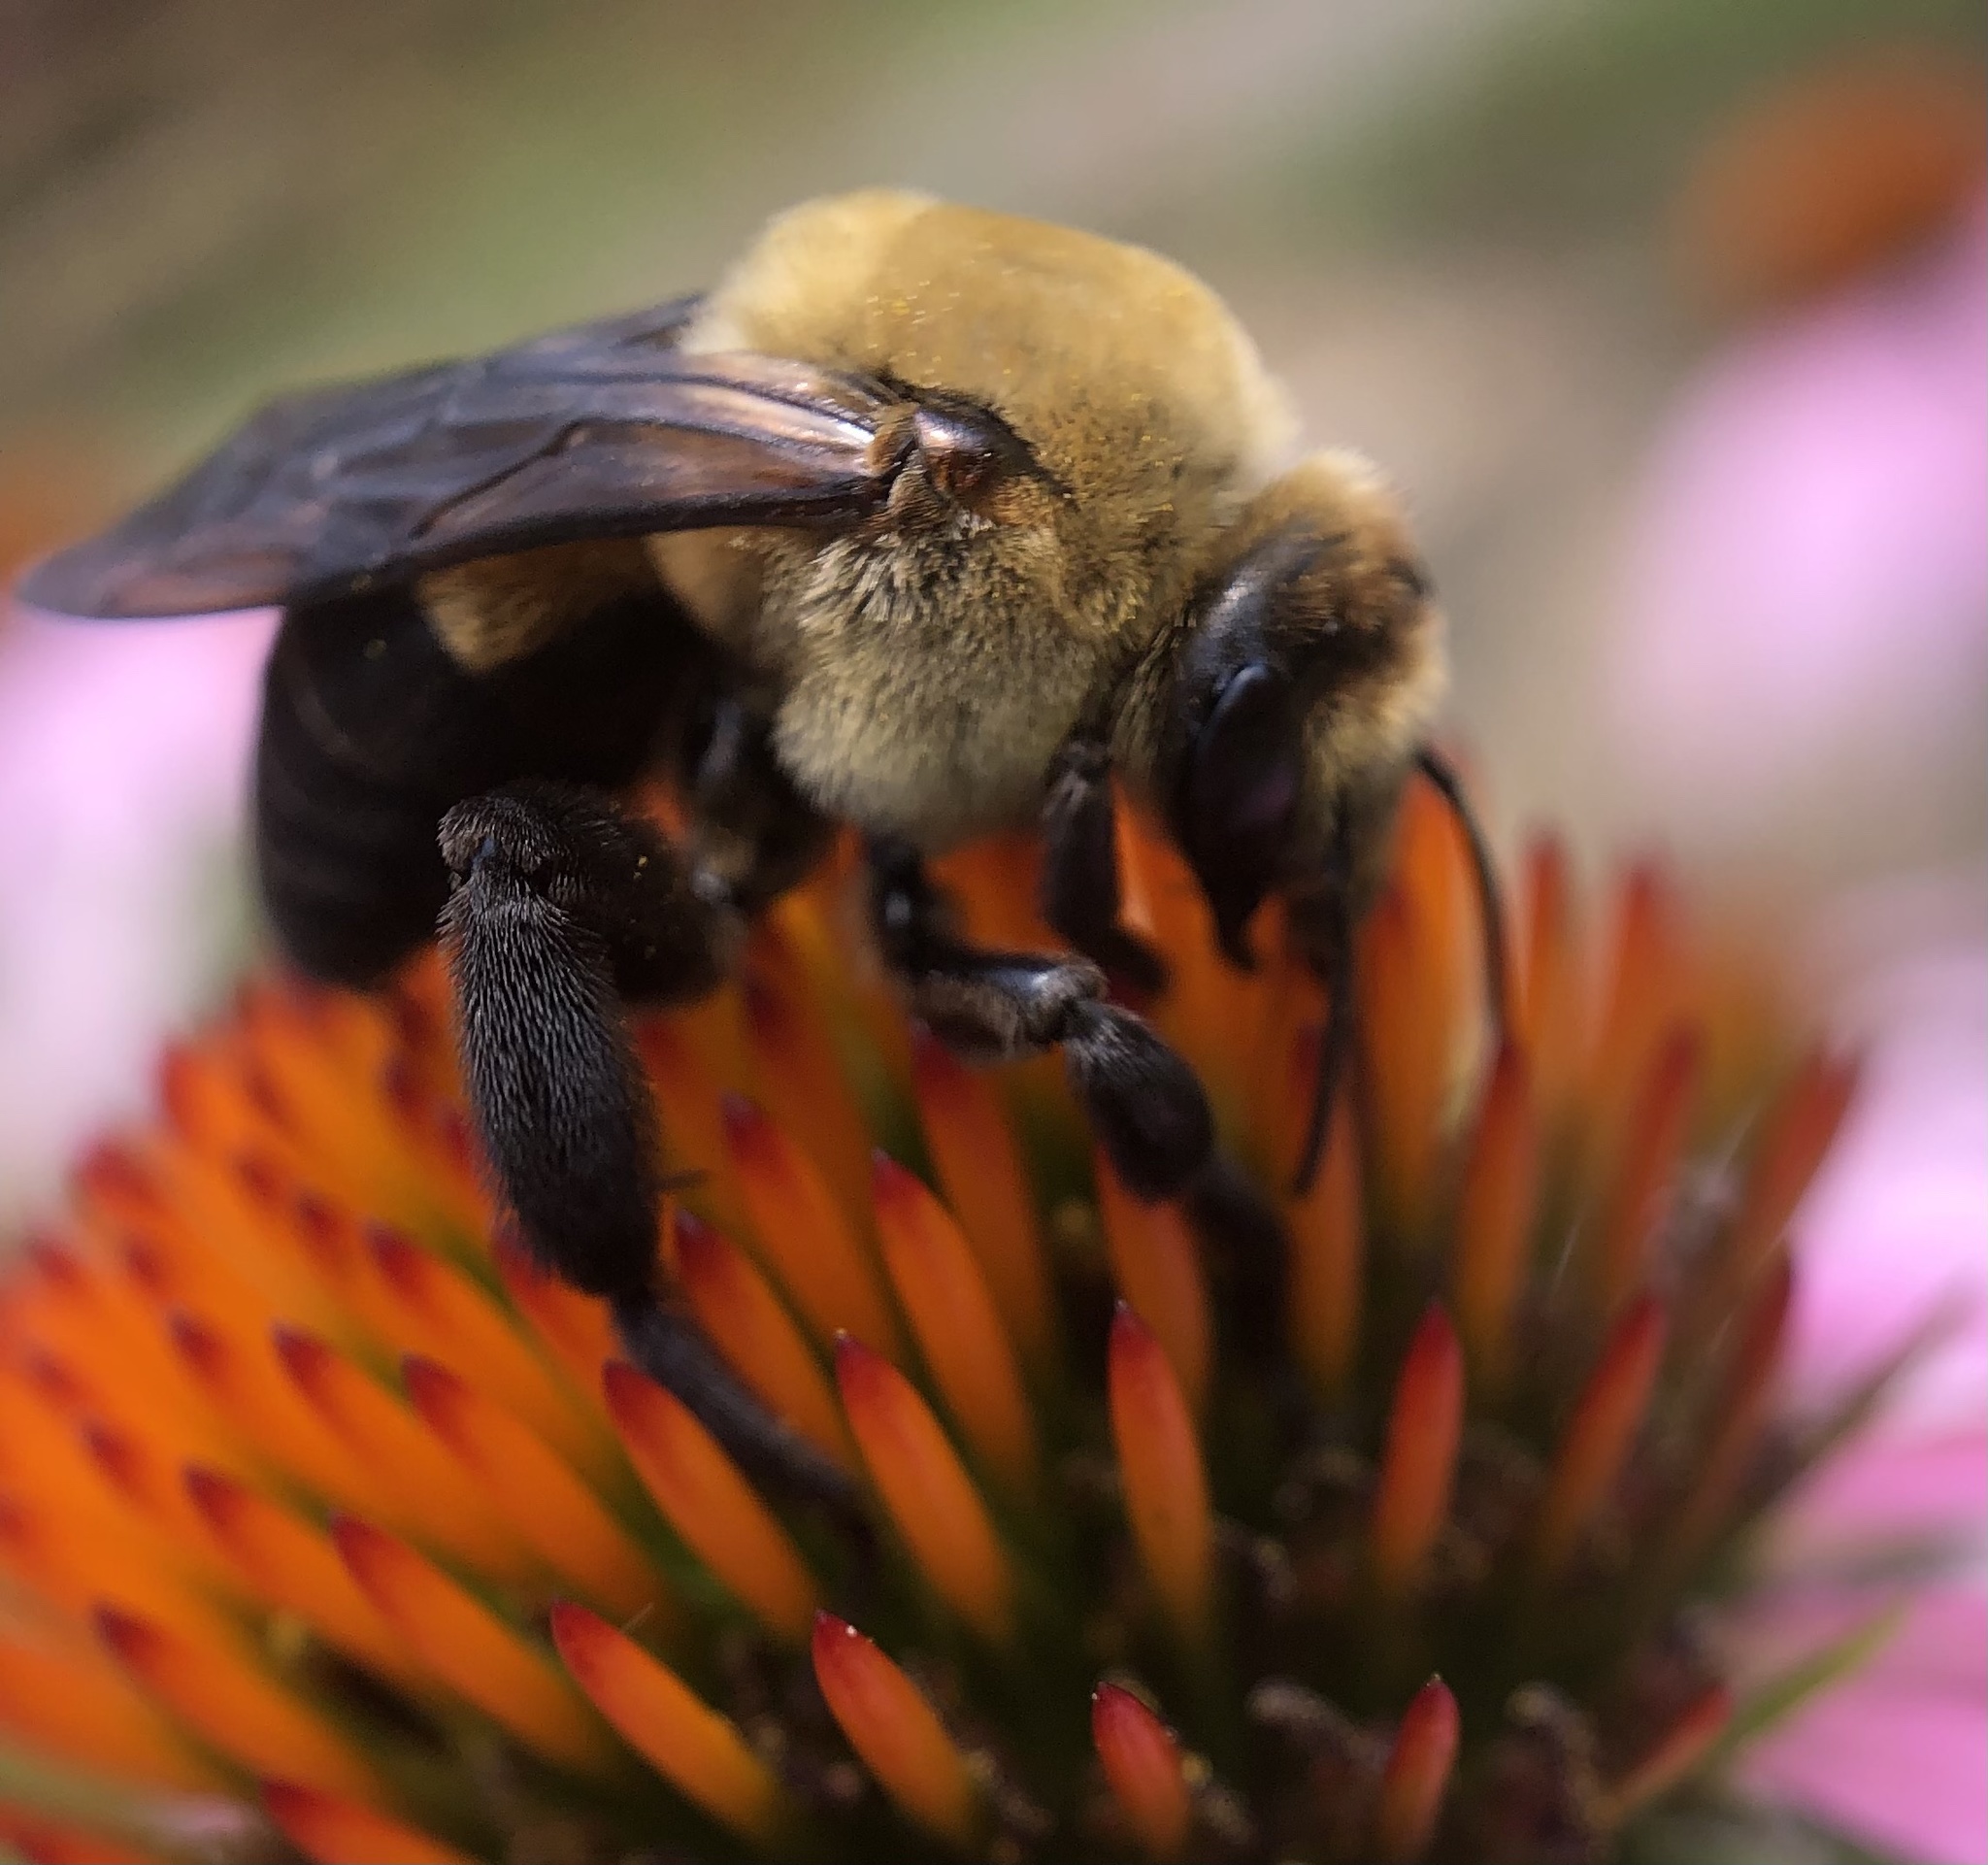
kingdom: Animalia
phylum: Arthropoda
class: Insecta
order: Hymenoptera
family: Apidae
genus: Ptilothrix
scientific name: Ptilothrix bombiformis
